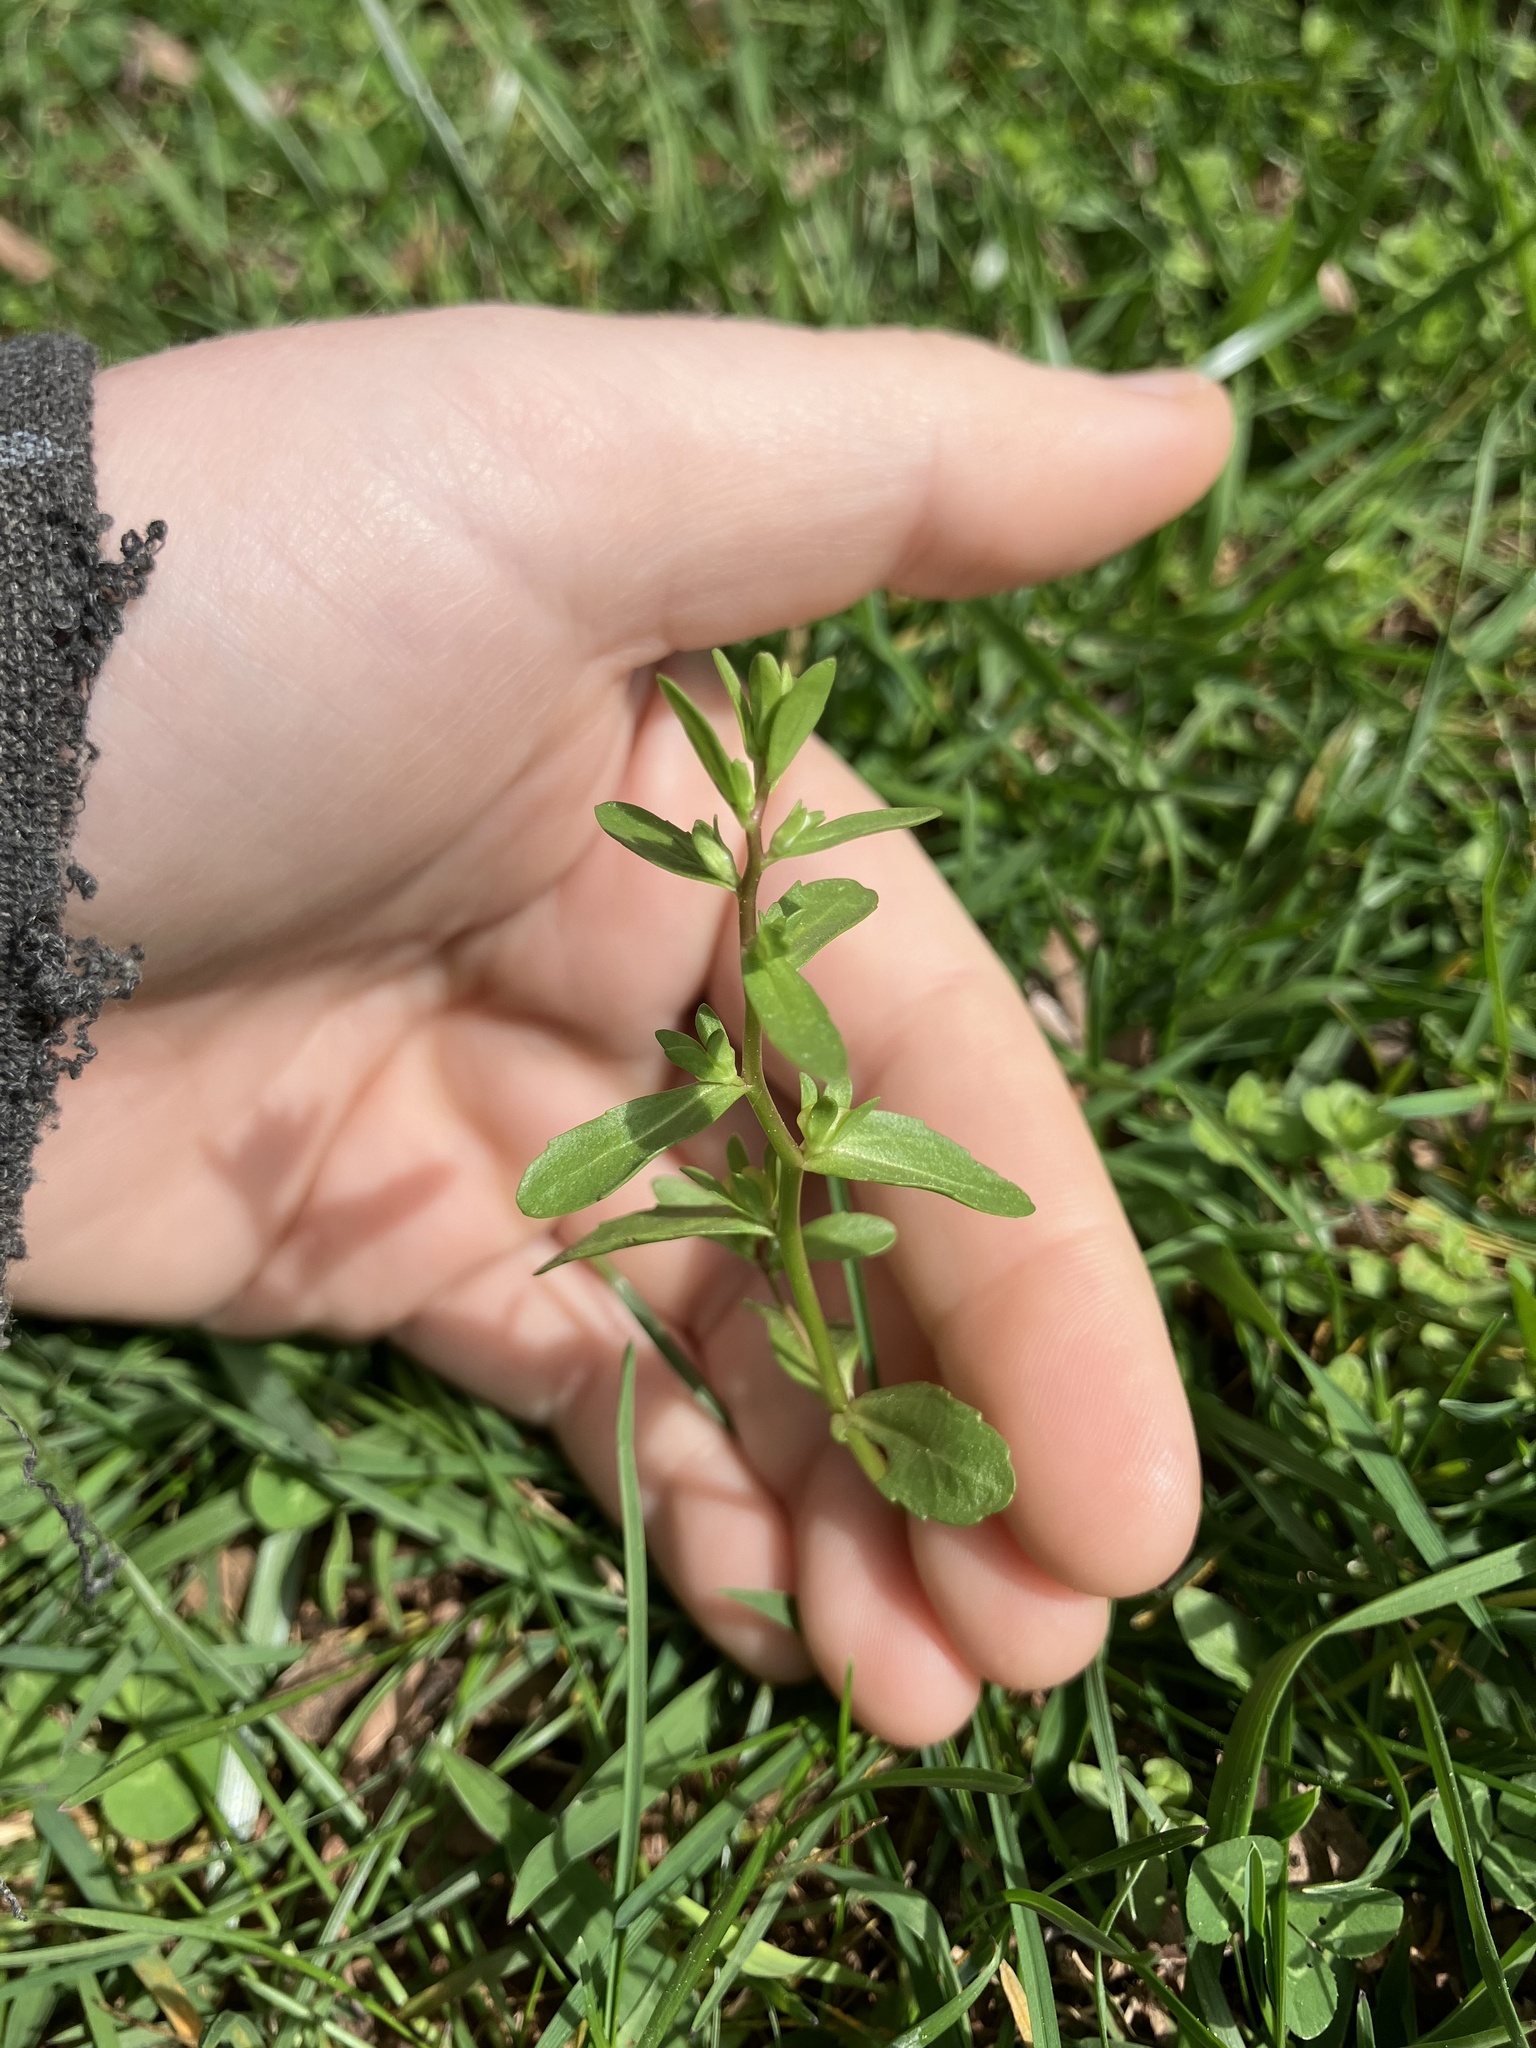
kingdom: Plantae
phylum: Tracheophyta
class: Magnoliopsida
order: Lamiales
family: Plantaginaceae
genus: Veronica
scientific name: Veronica peregrina
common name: Neckweed
